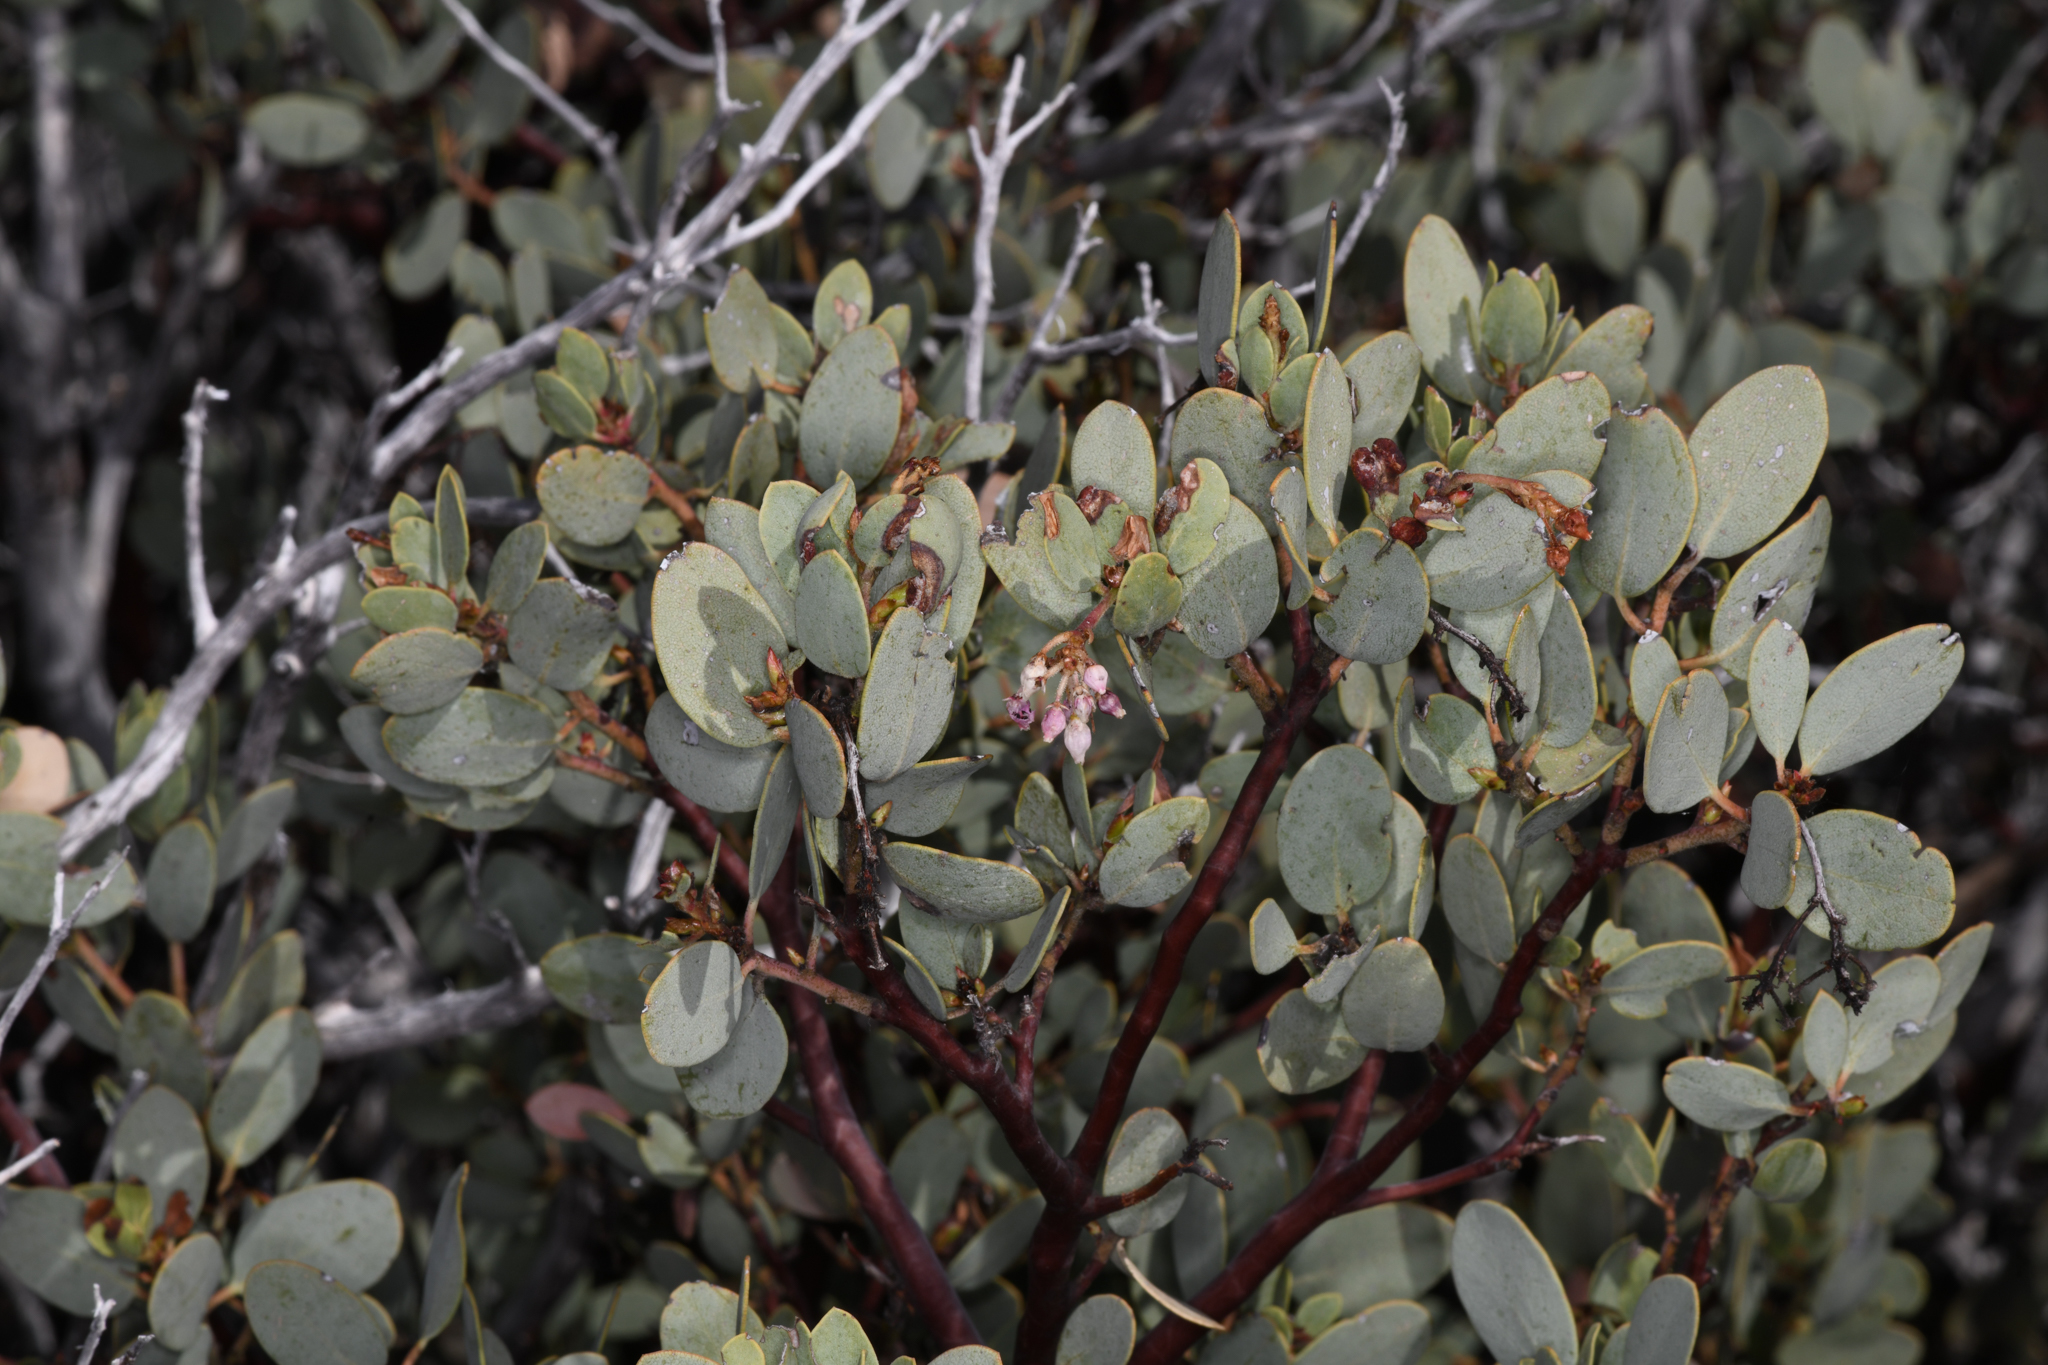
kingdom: Plantae
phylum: Tracheophyta
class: Magnoliopsida
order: Ericales
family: Ericaceae
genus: Arctostaphylos
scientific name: Arctostaphylos viscida
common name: White-leaf manzanita
